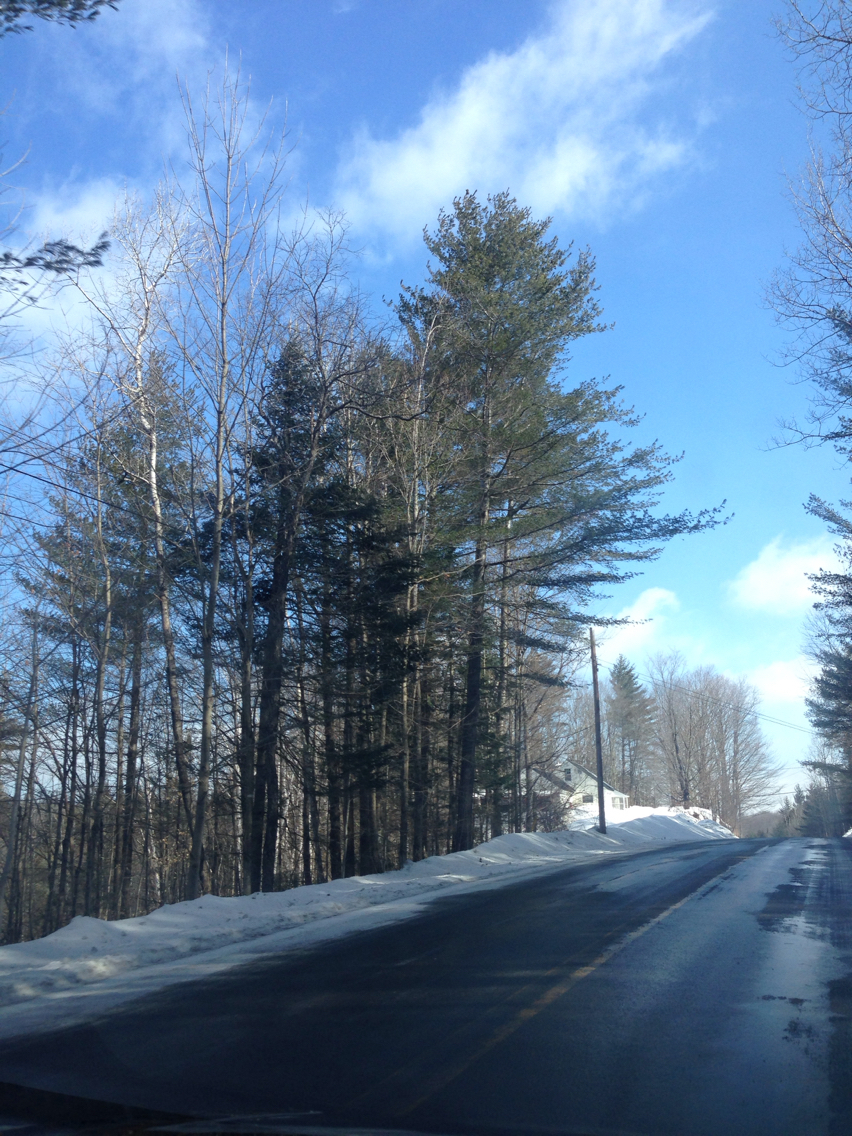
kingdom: Plantae
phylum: Tracheophyta
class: Pinopsida
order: Pinales
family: Pinaceae
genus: Pinus
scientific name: Pinus strobus
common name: Weymouth pine
